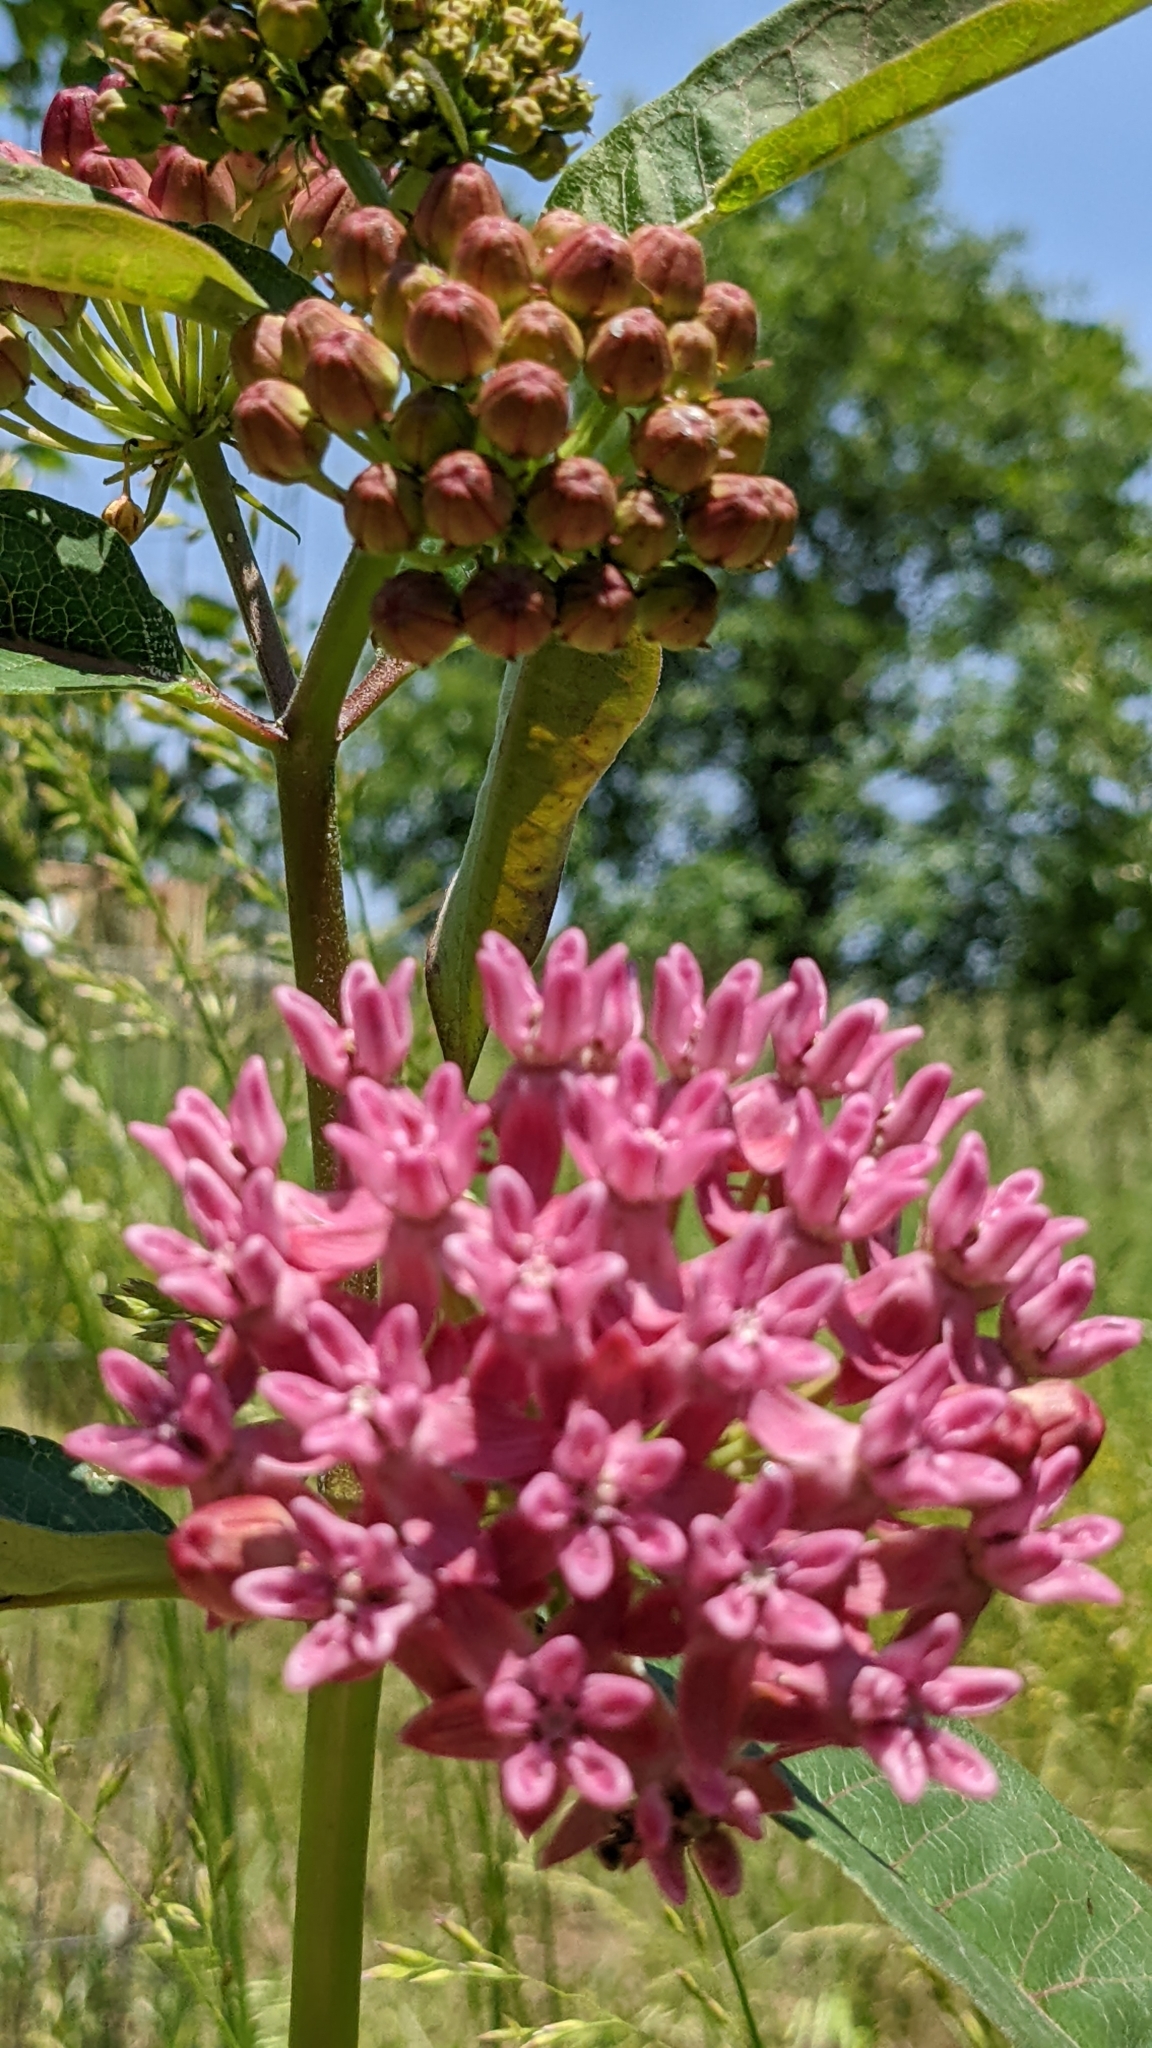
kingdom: Plantae
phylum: Tracheophyta
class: Magnoliopsida
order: Gentianales
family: Apocynaceae
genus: Asclepias
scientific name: Asclepias purpurascens
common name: Purple milkweed
